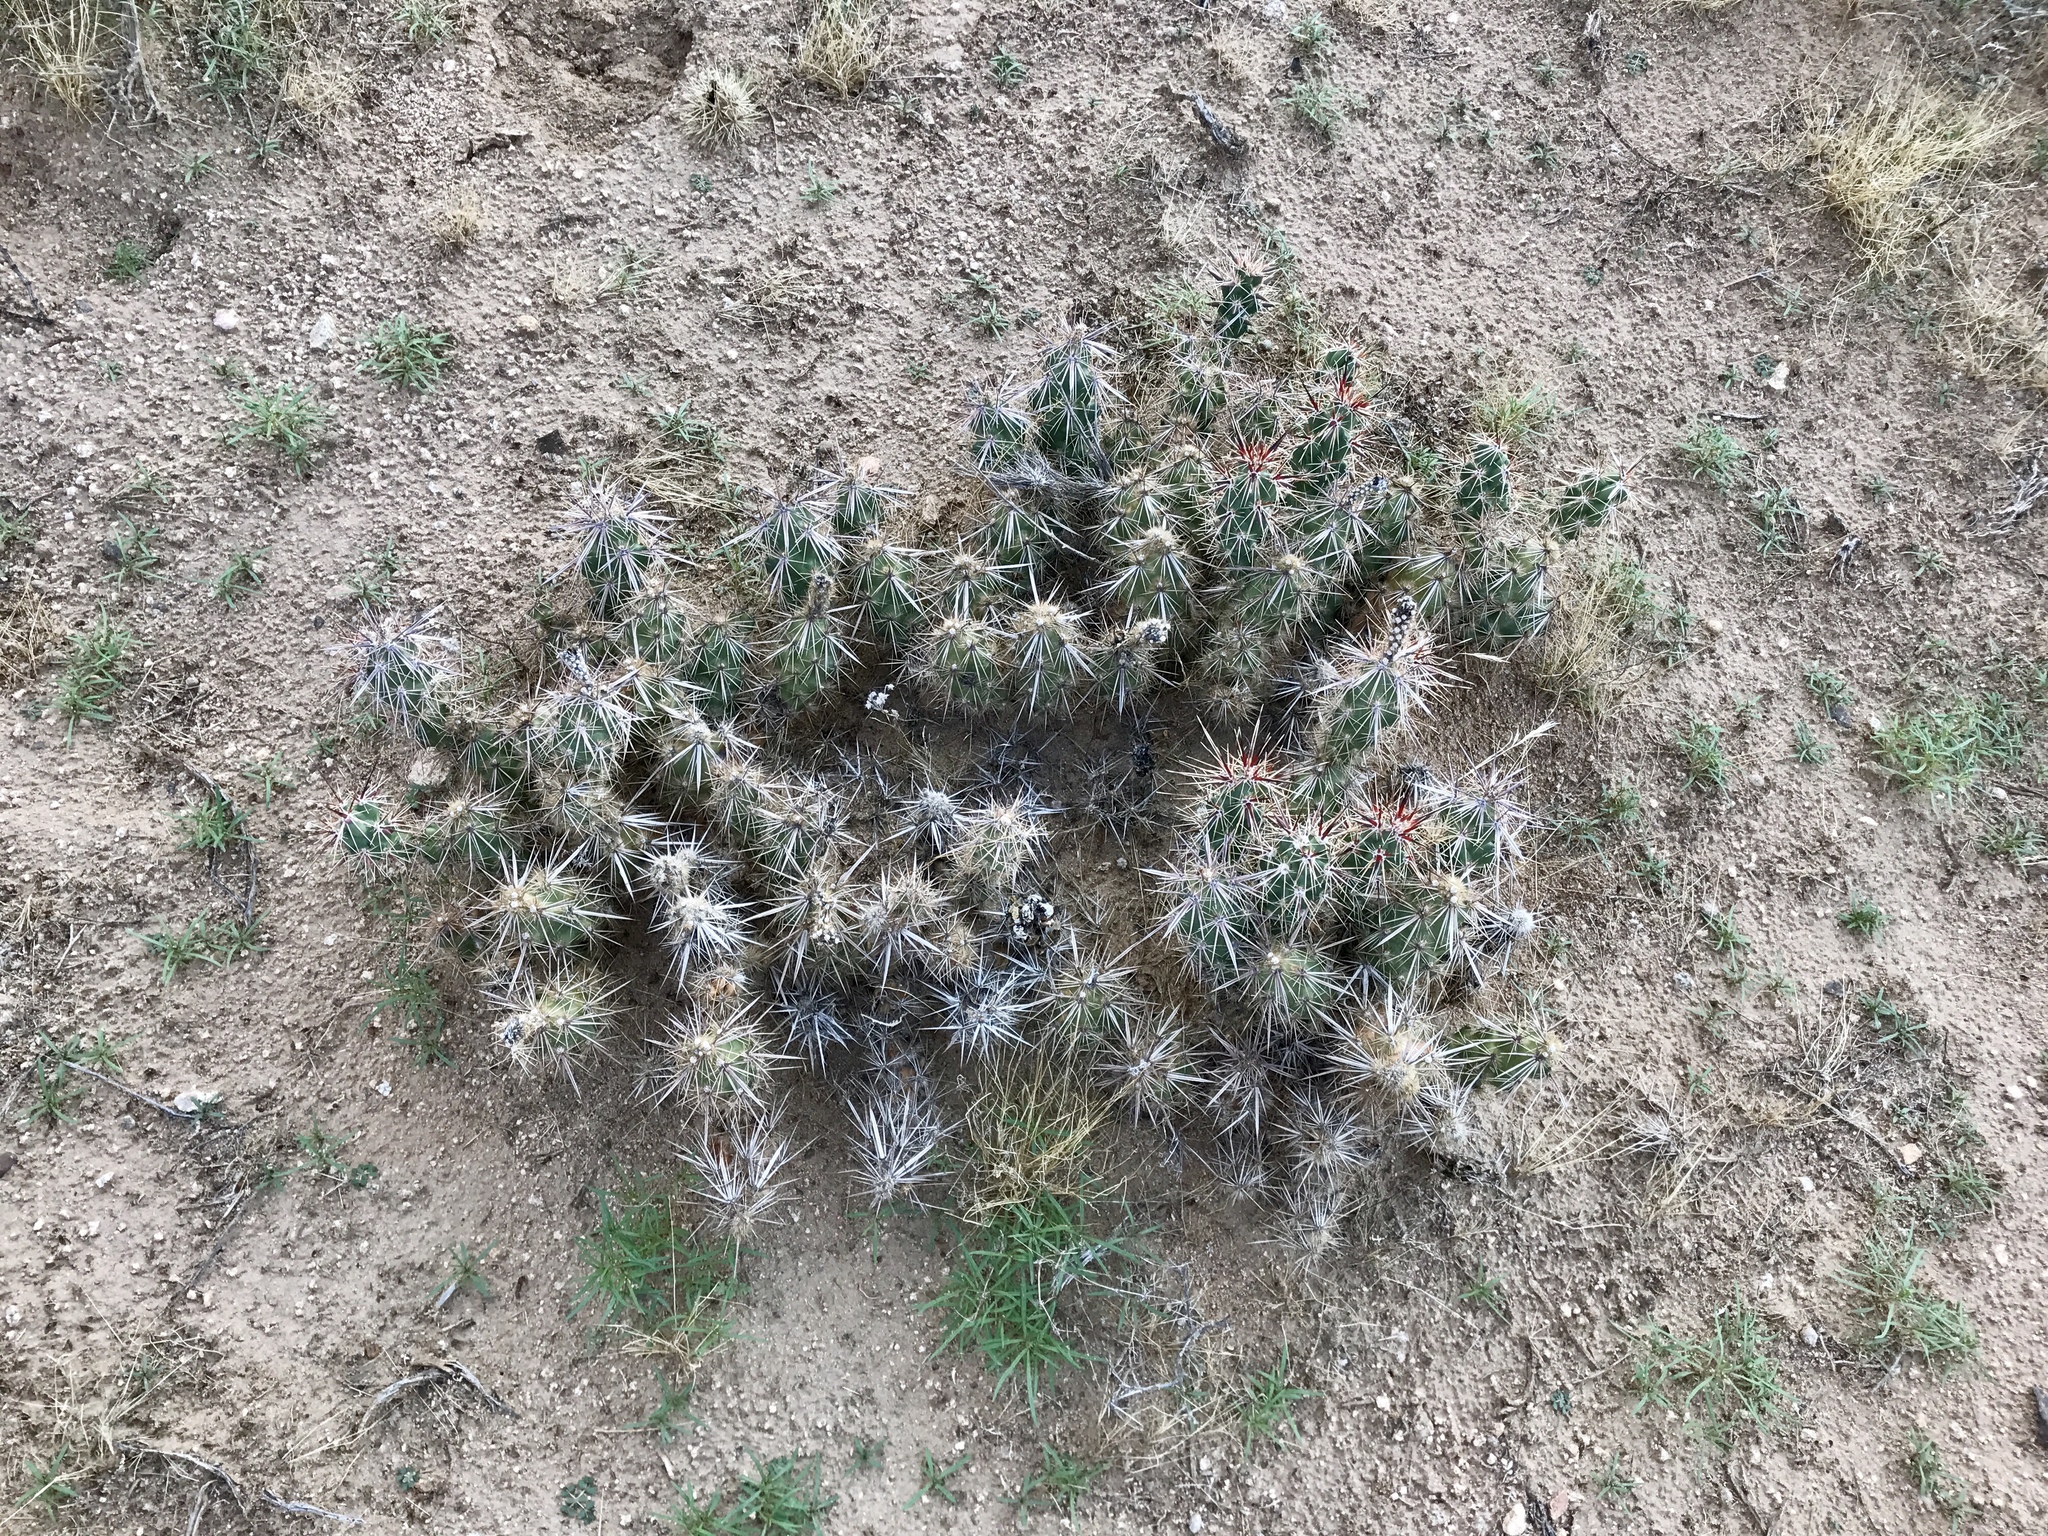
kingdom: Plantae
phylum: Tracheophyta
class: Magnoliopsida
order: Caryophyllales
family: Cactaceae
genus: Grusonia
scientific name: Grusonia parishiorum
